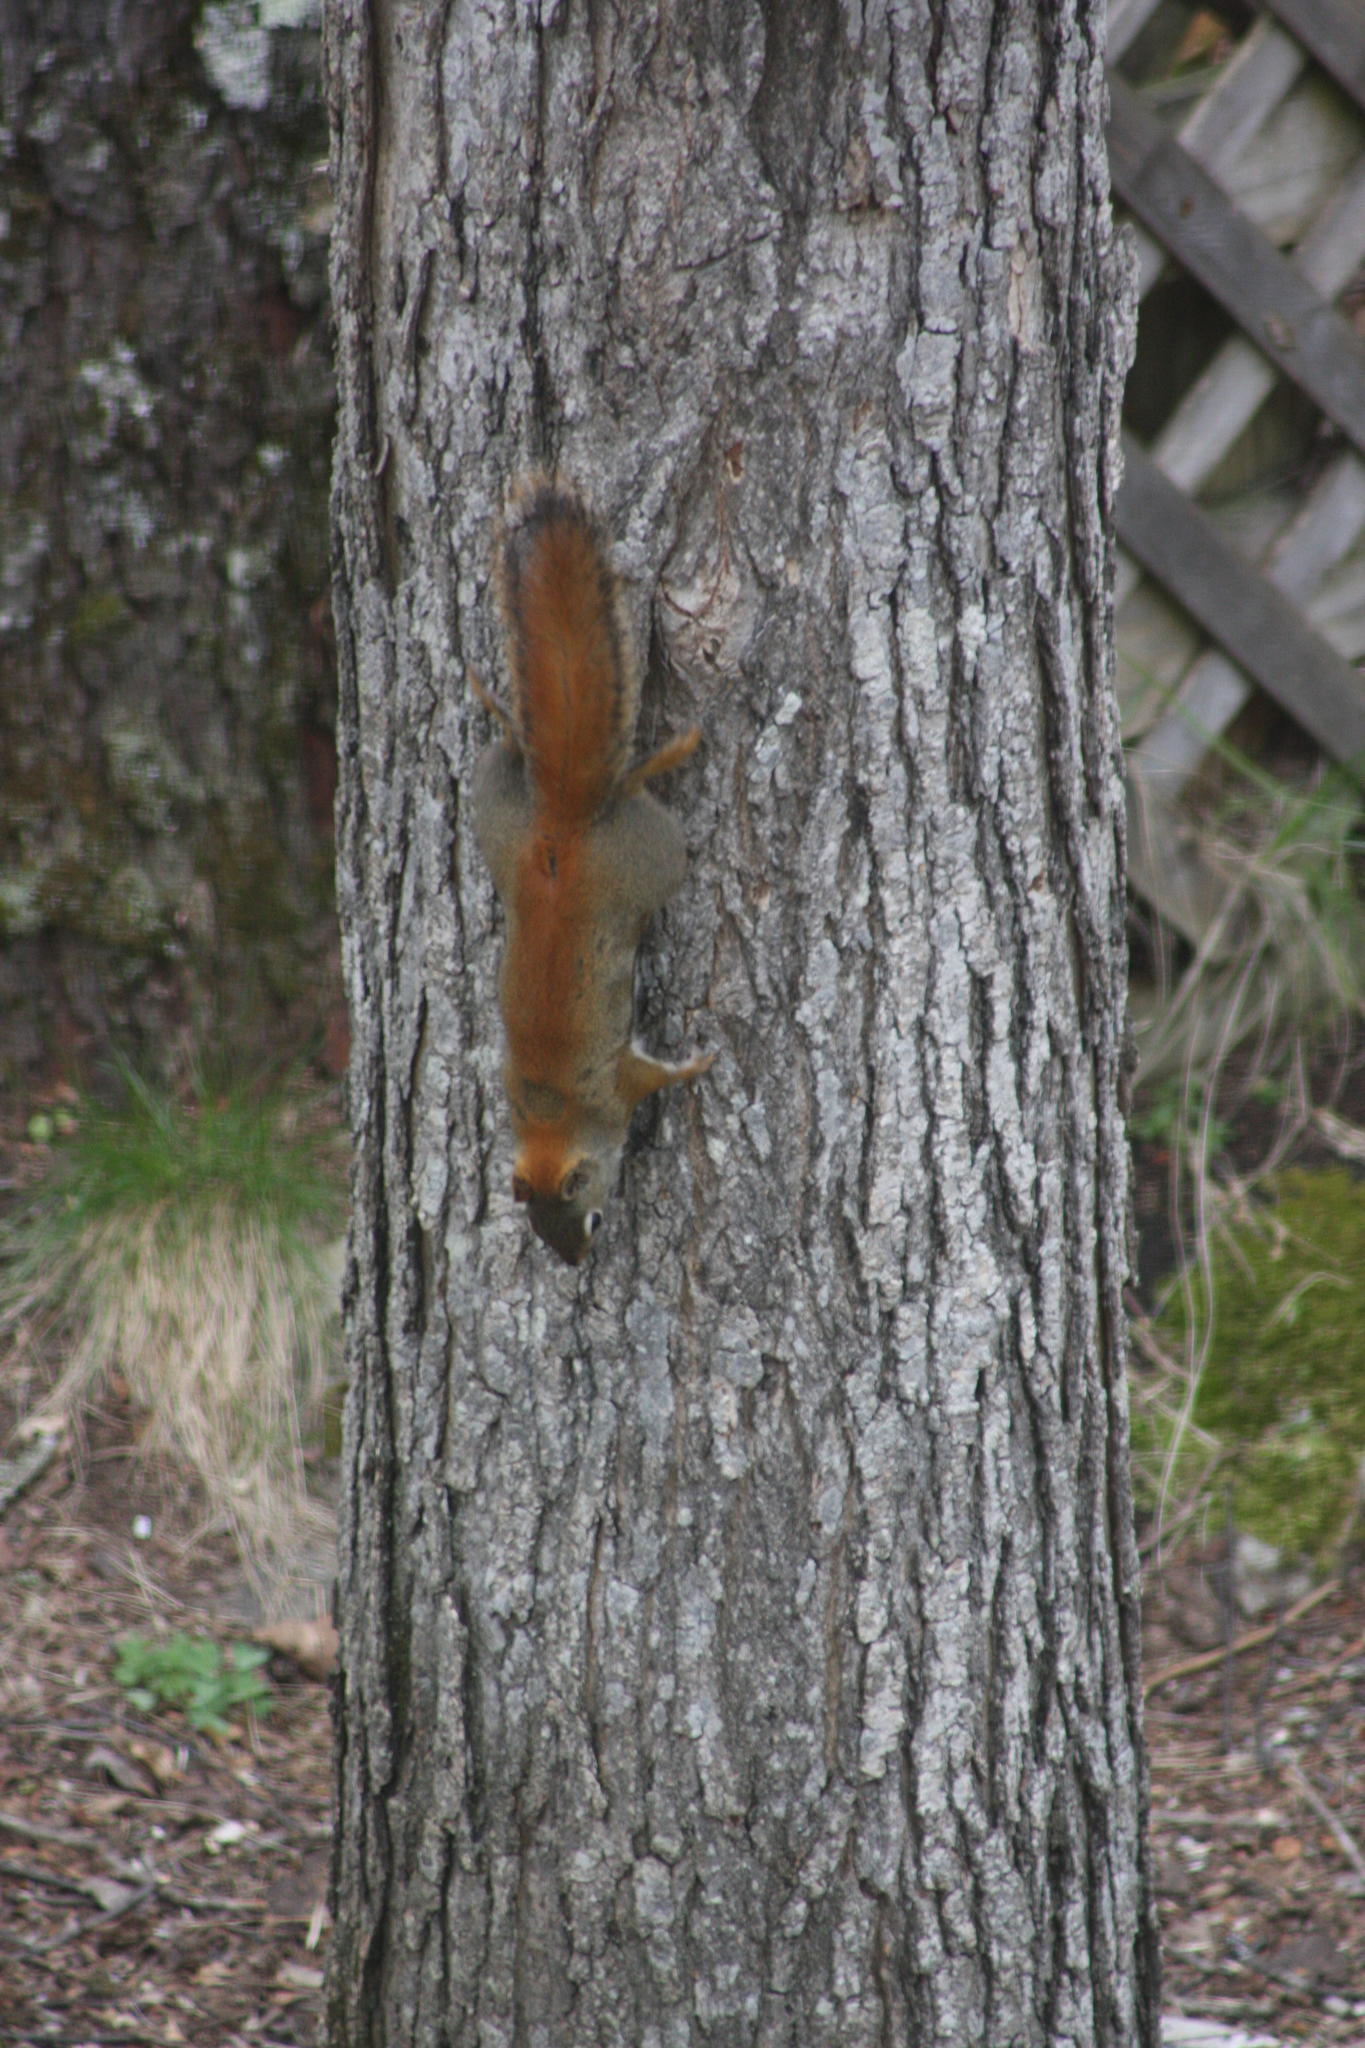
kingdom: Animalia
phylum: Chordata
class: Mammalia
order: Rodentia
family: Sciuridae
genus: Tamiasciurus
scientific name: Tamiasciurus hudsonicus
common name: Red squirrel
